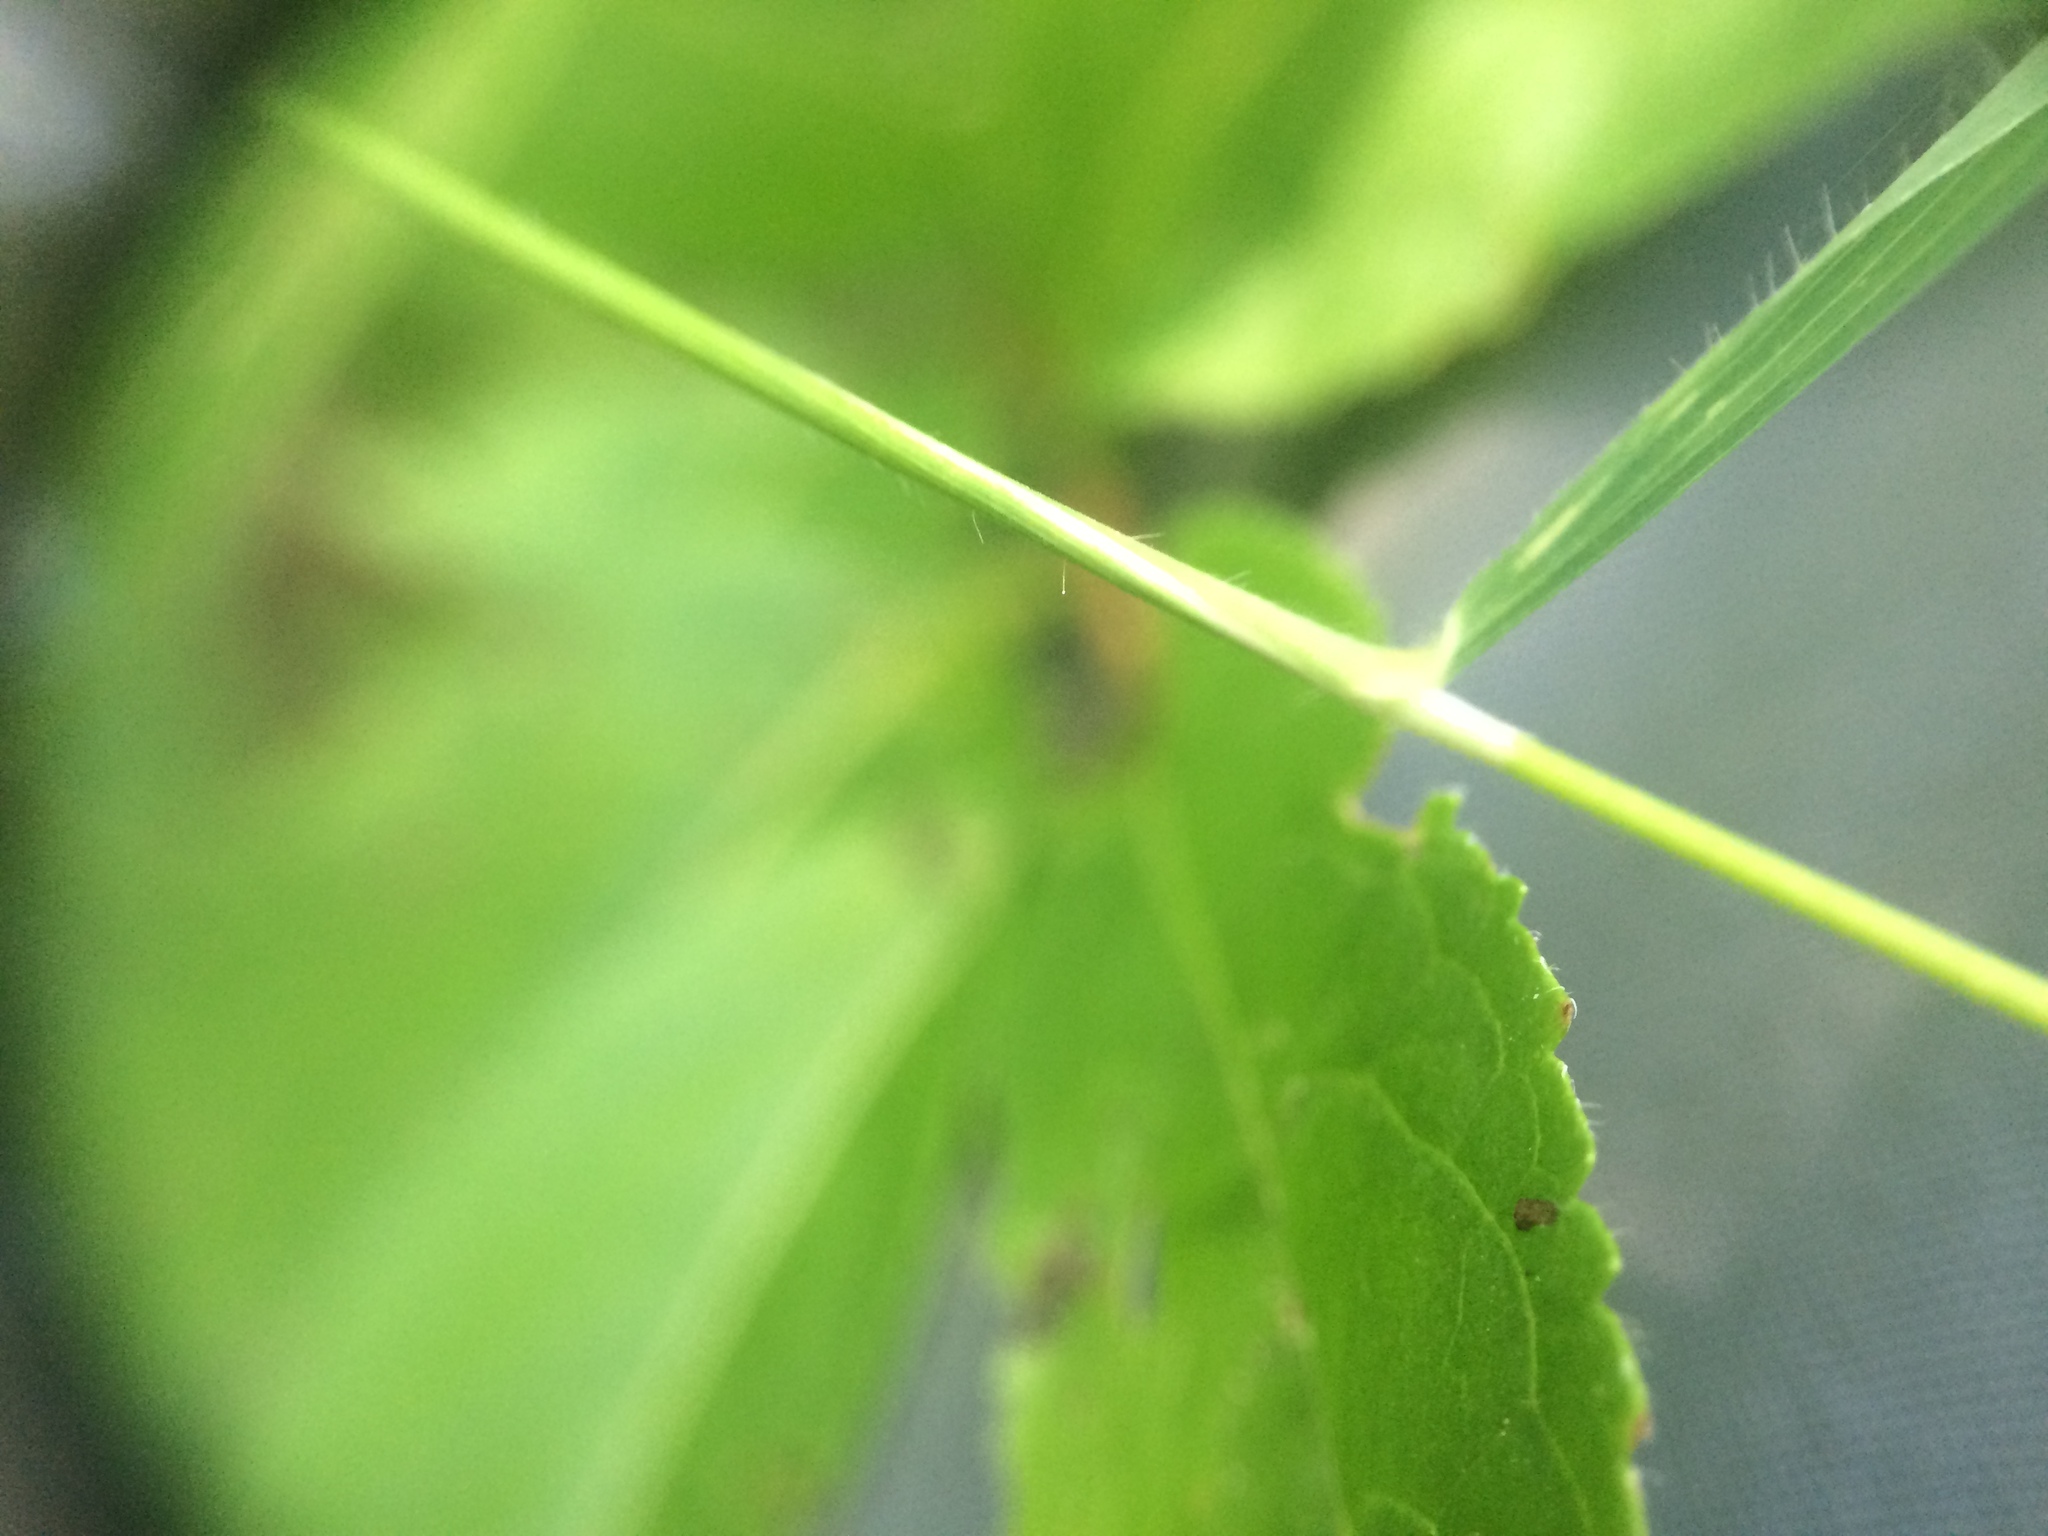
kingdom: Plantae
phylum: Tracheophyta
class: Liliopsida
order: Poales
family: Poaceae
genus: Brachyelytrum
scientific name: Brachyelytrum aristosum
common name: Northern shorthusk
